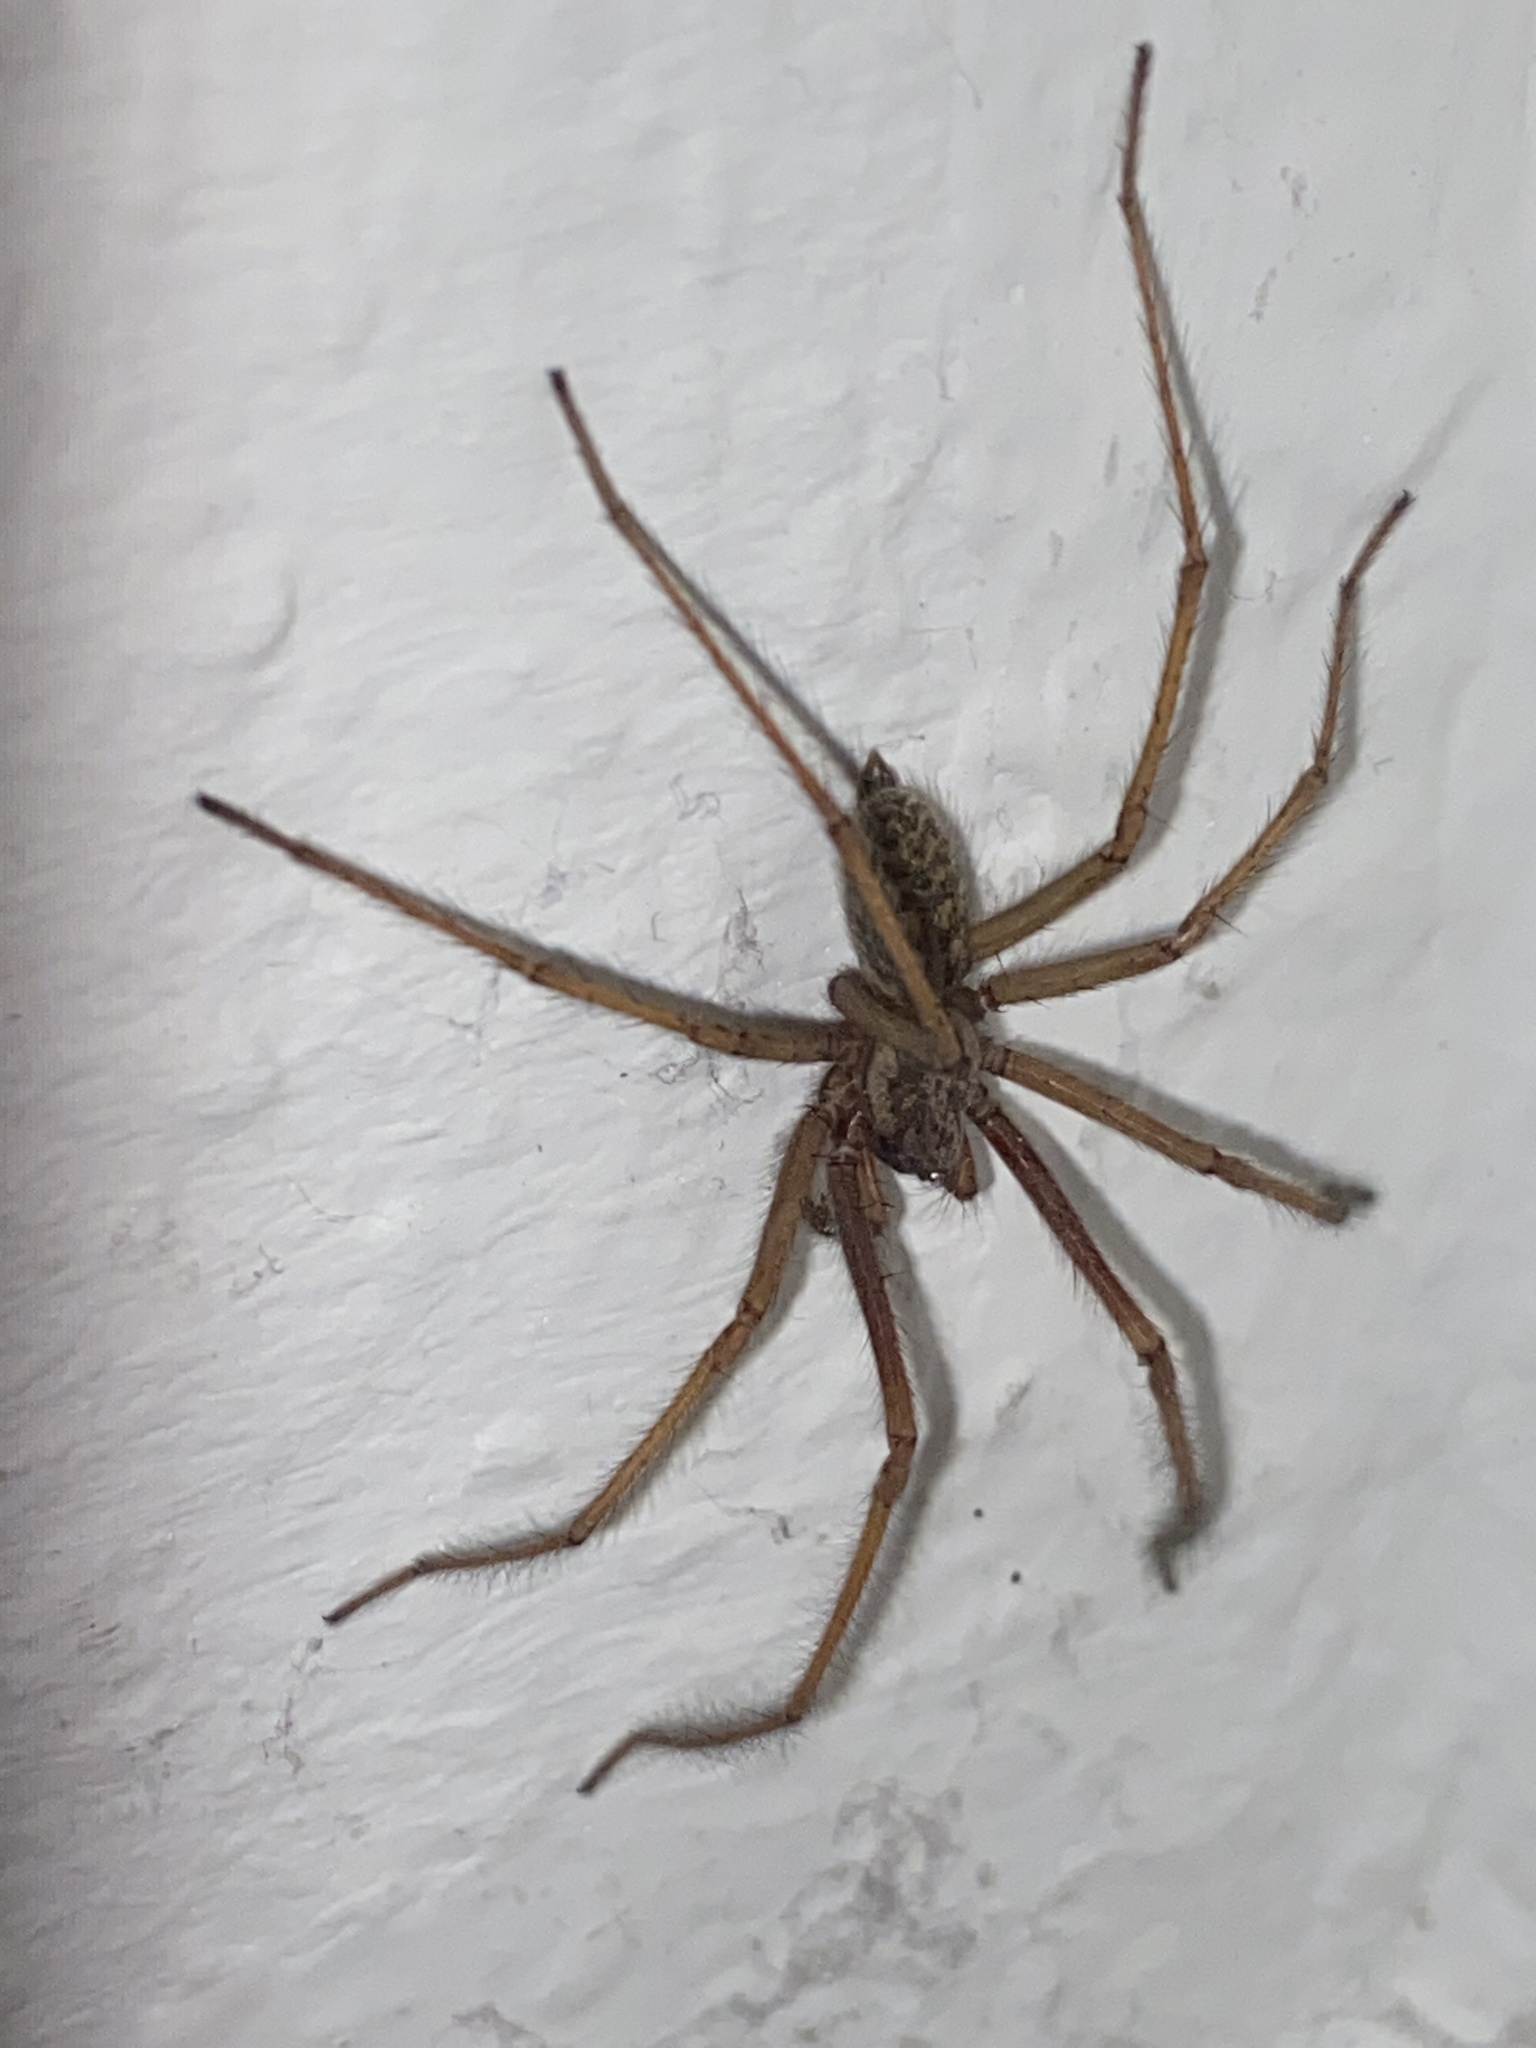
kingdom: Animalia
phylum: Arthropoda
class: Arachnida
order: Araneae
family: Agelenidae
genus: Eratigena
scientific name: Eratigena atrica
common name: Giant house spider
